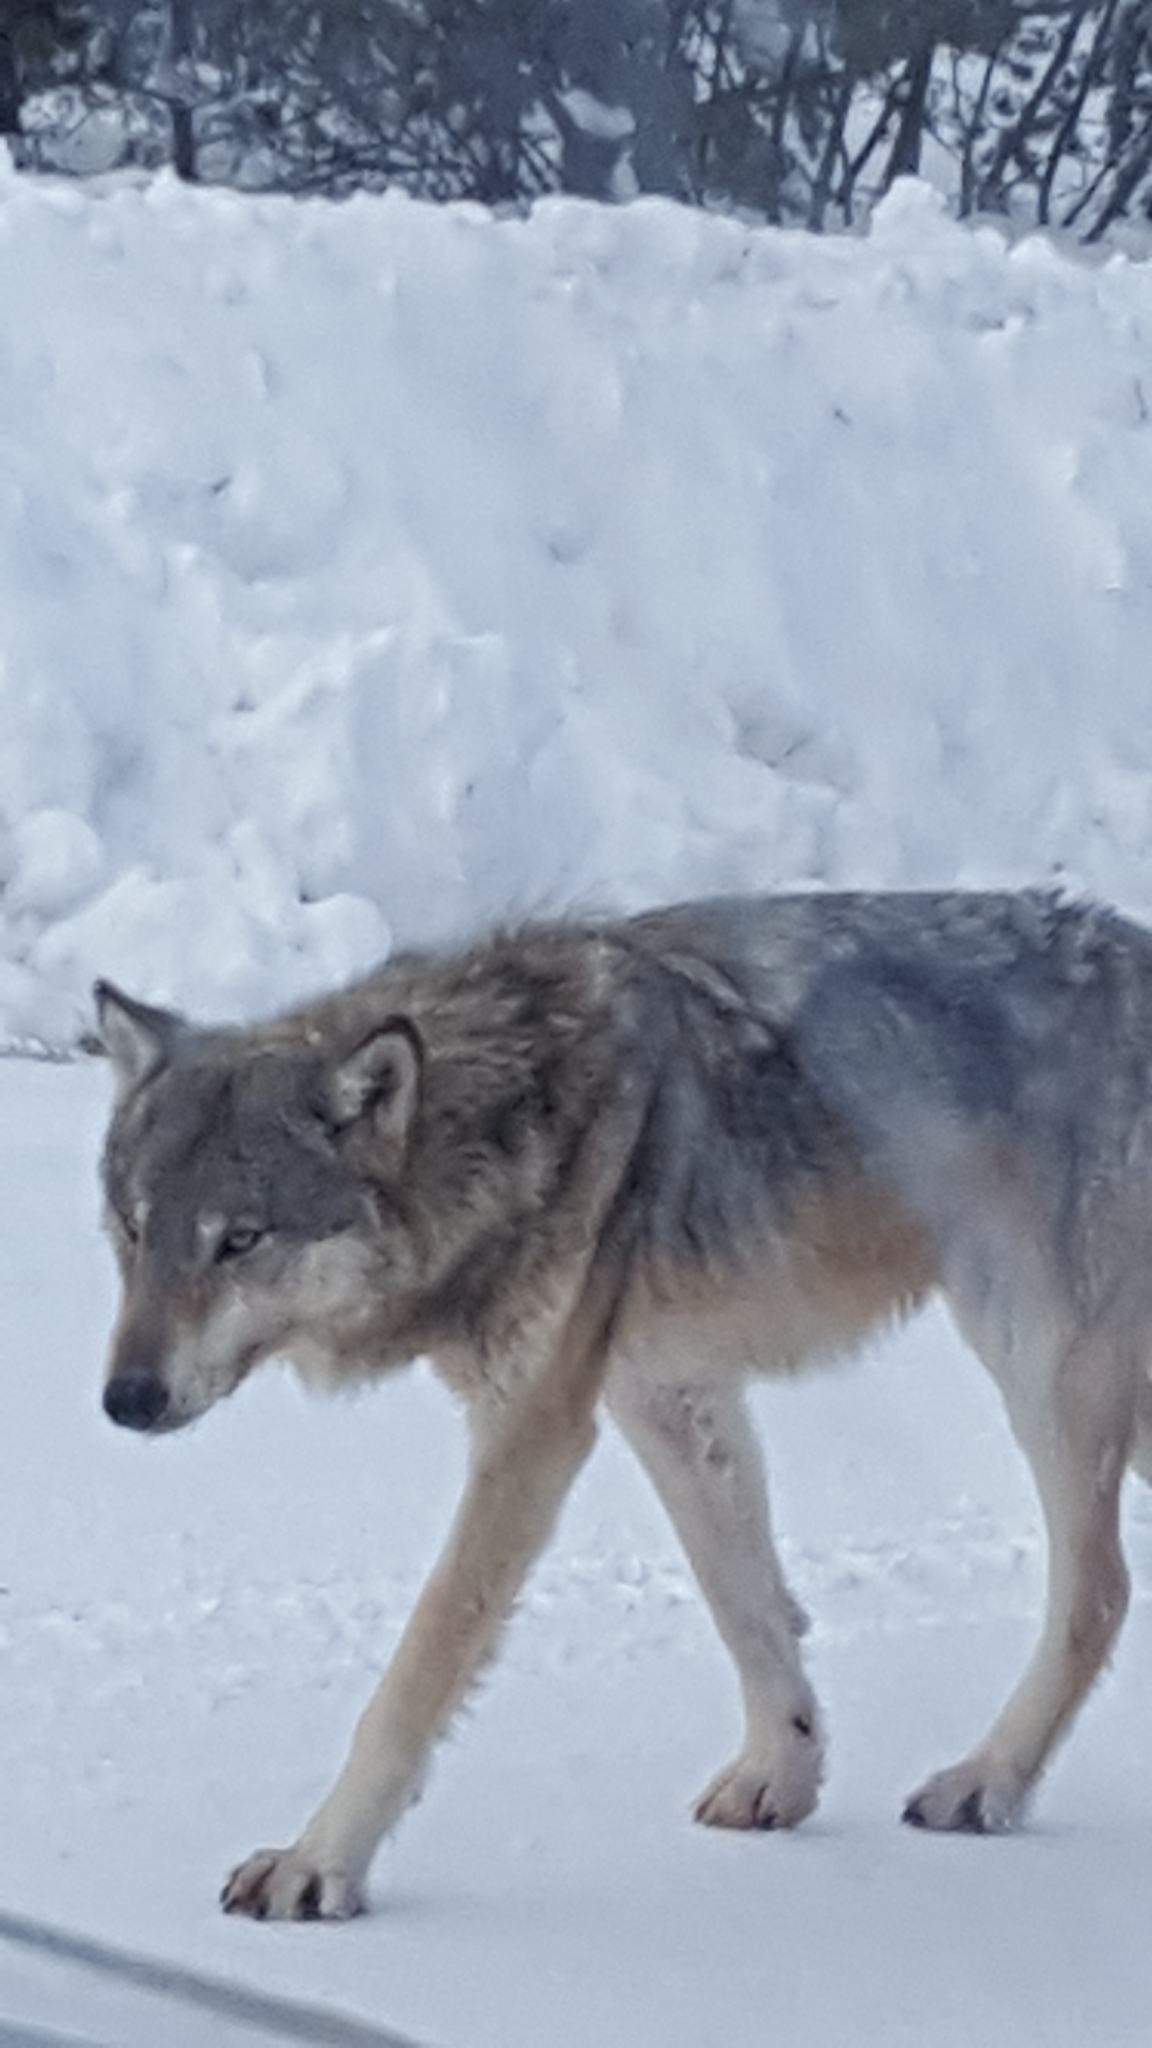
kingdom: Animalia
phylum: Chordata
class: Mammalia
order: Carnivora
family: Canidae
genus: Canis
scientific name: Canis lupus
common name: Gray wolf
